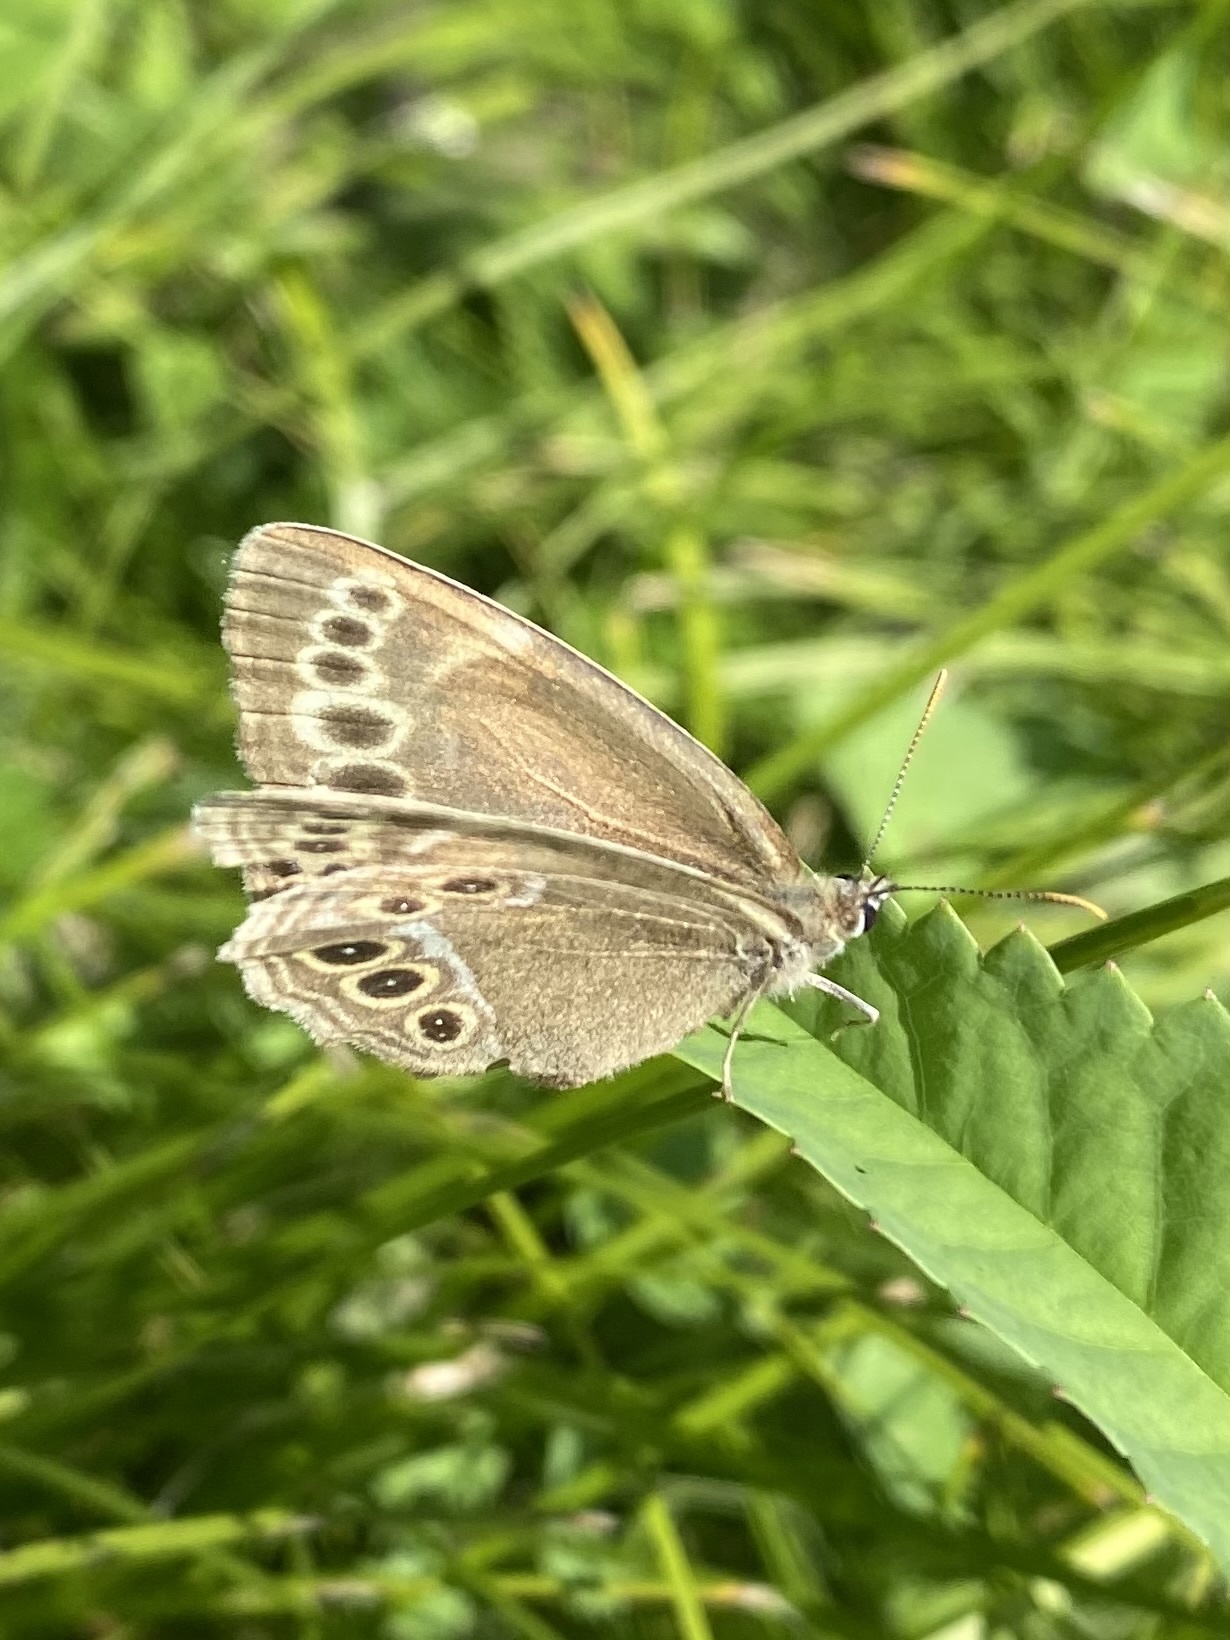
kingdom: Animalia
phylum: Arthropoda
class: Insecta
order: Lepidoptera
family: Nymphalidae
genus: Pararge
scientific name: Pararge Lopinga achine
